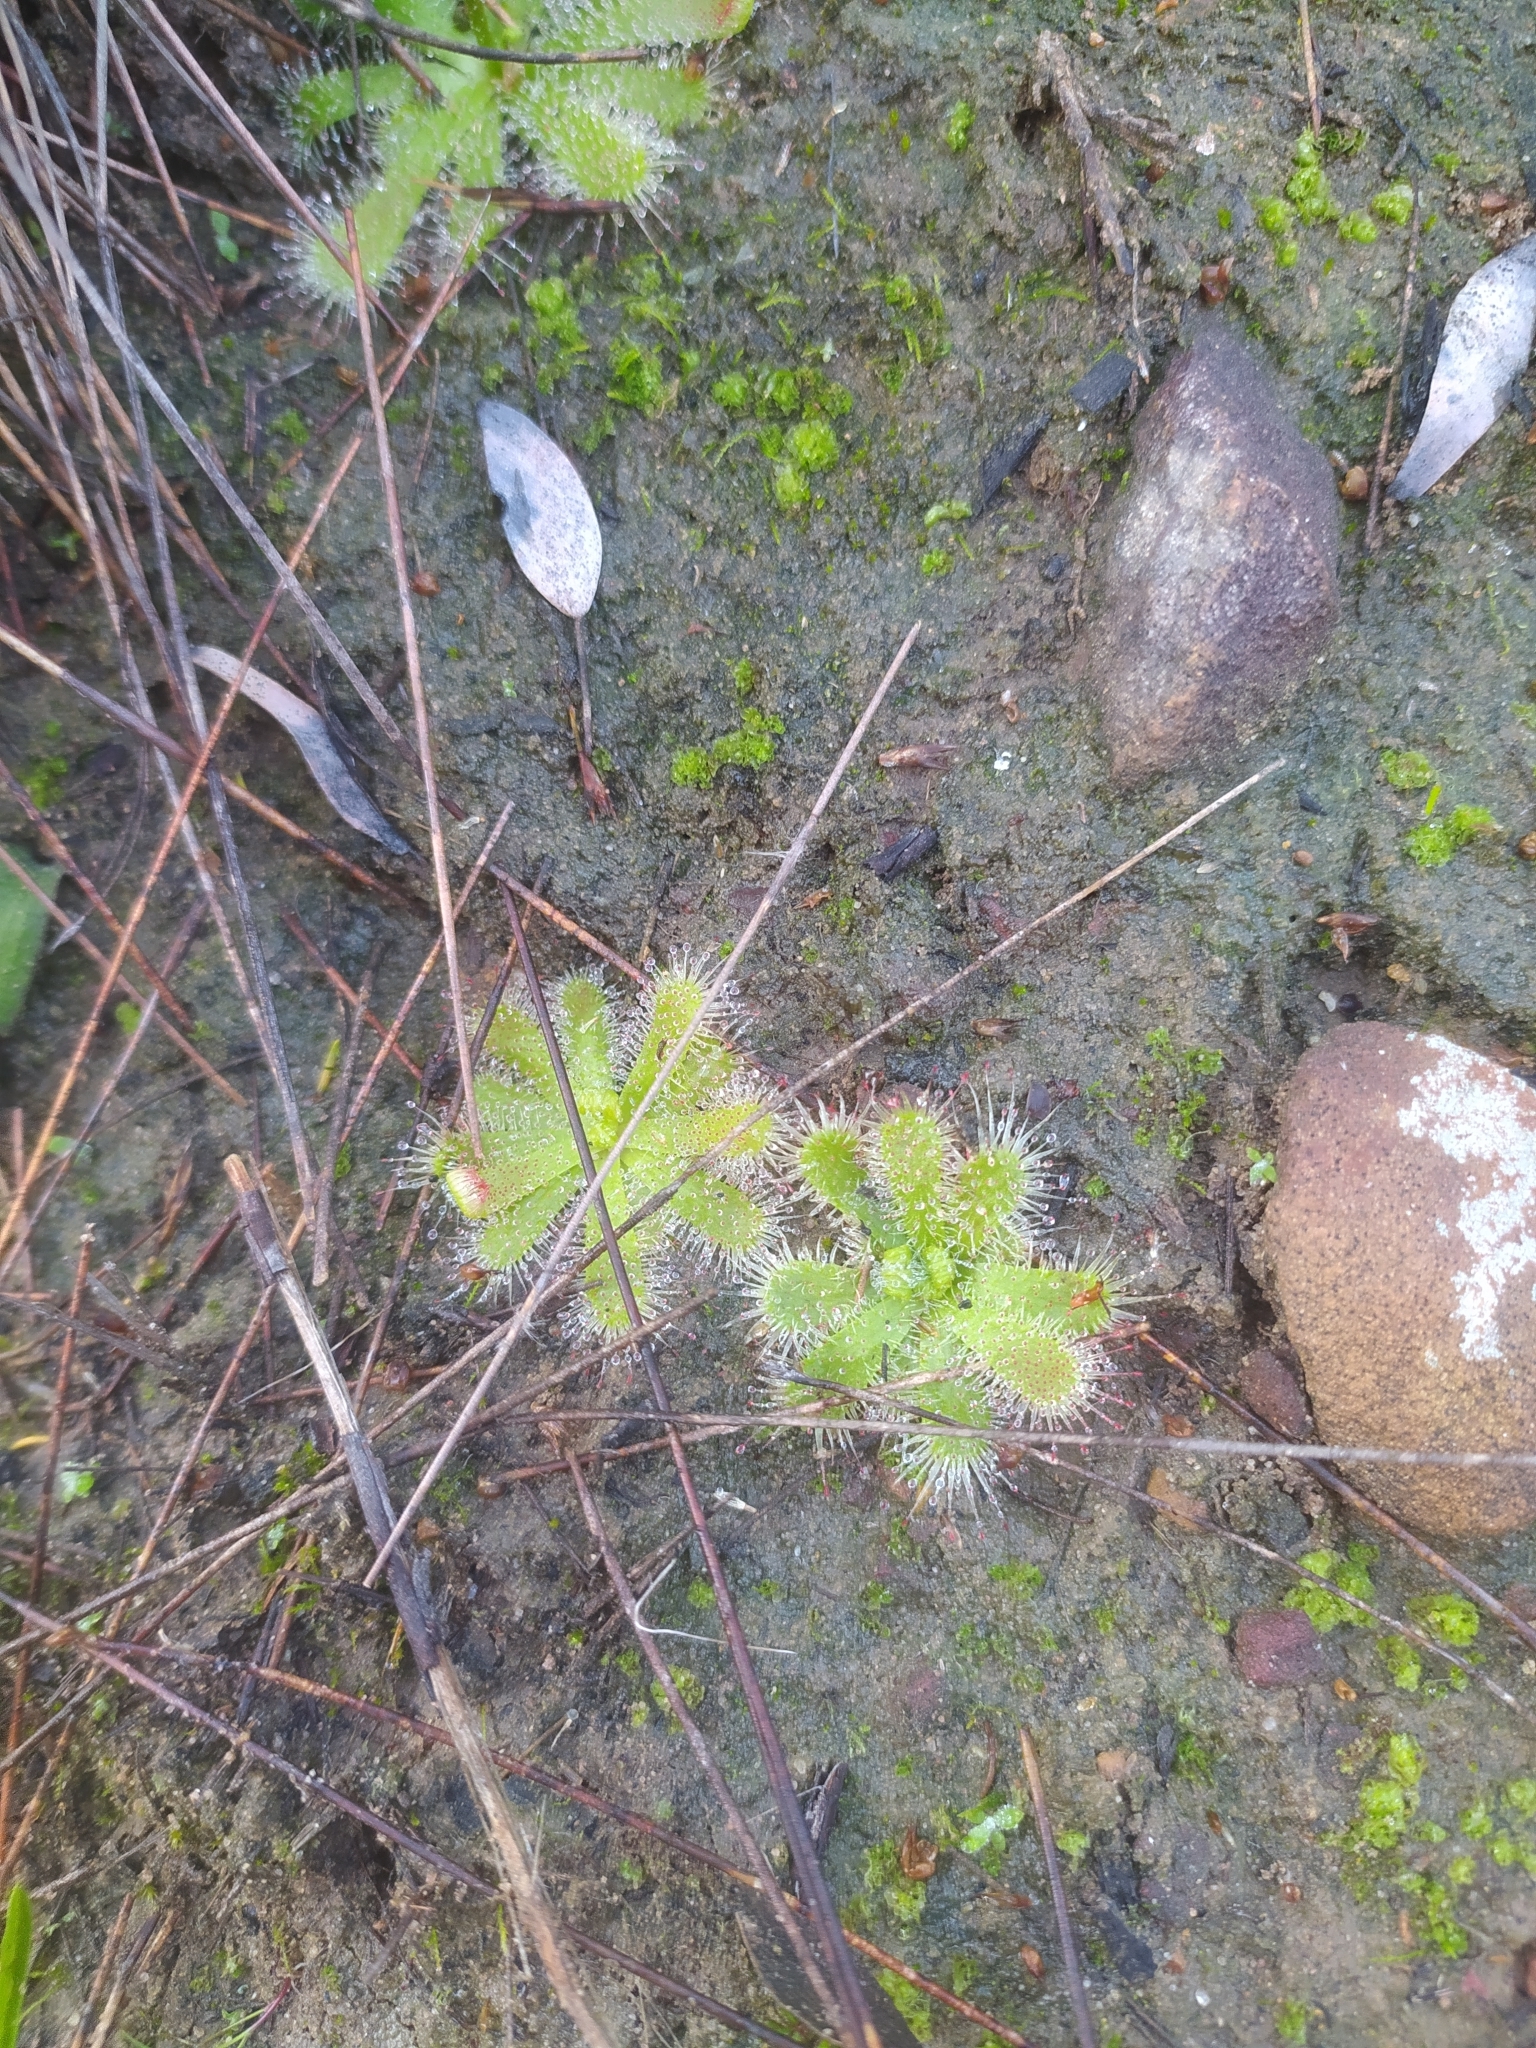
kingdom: Plantae
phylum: Tracheophyta
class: Magnoliopsida
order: Caryophyllales
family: Droseraceae
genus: Drosera
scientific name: Drosera pauciflora
